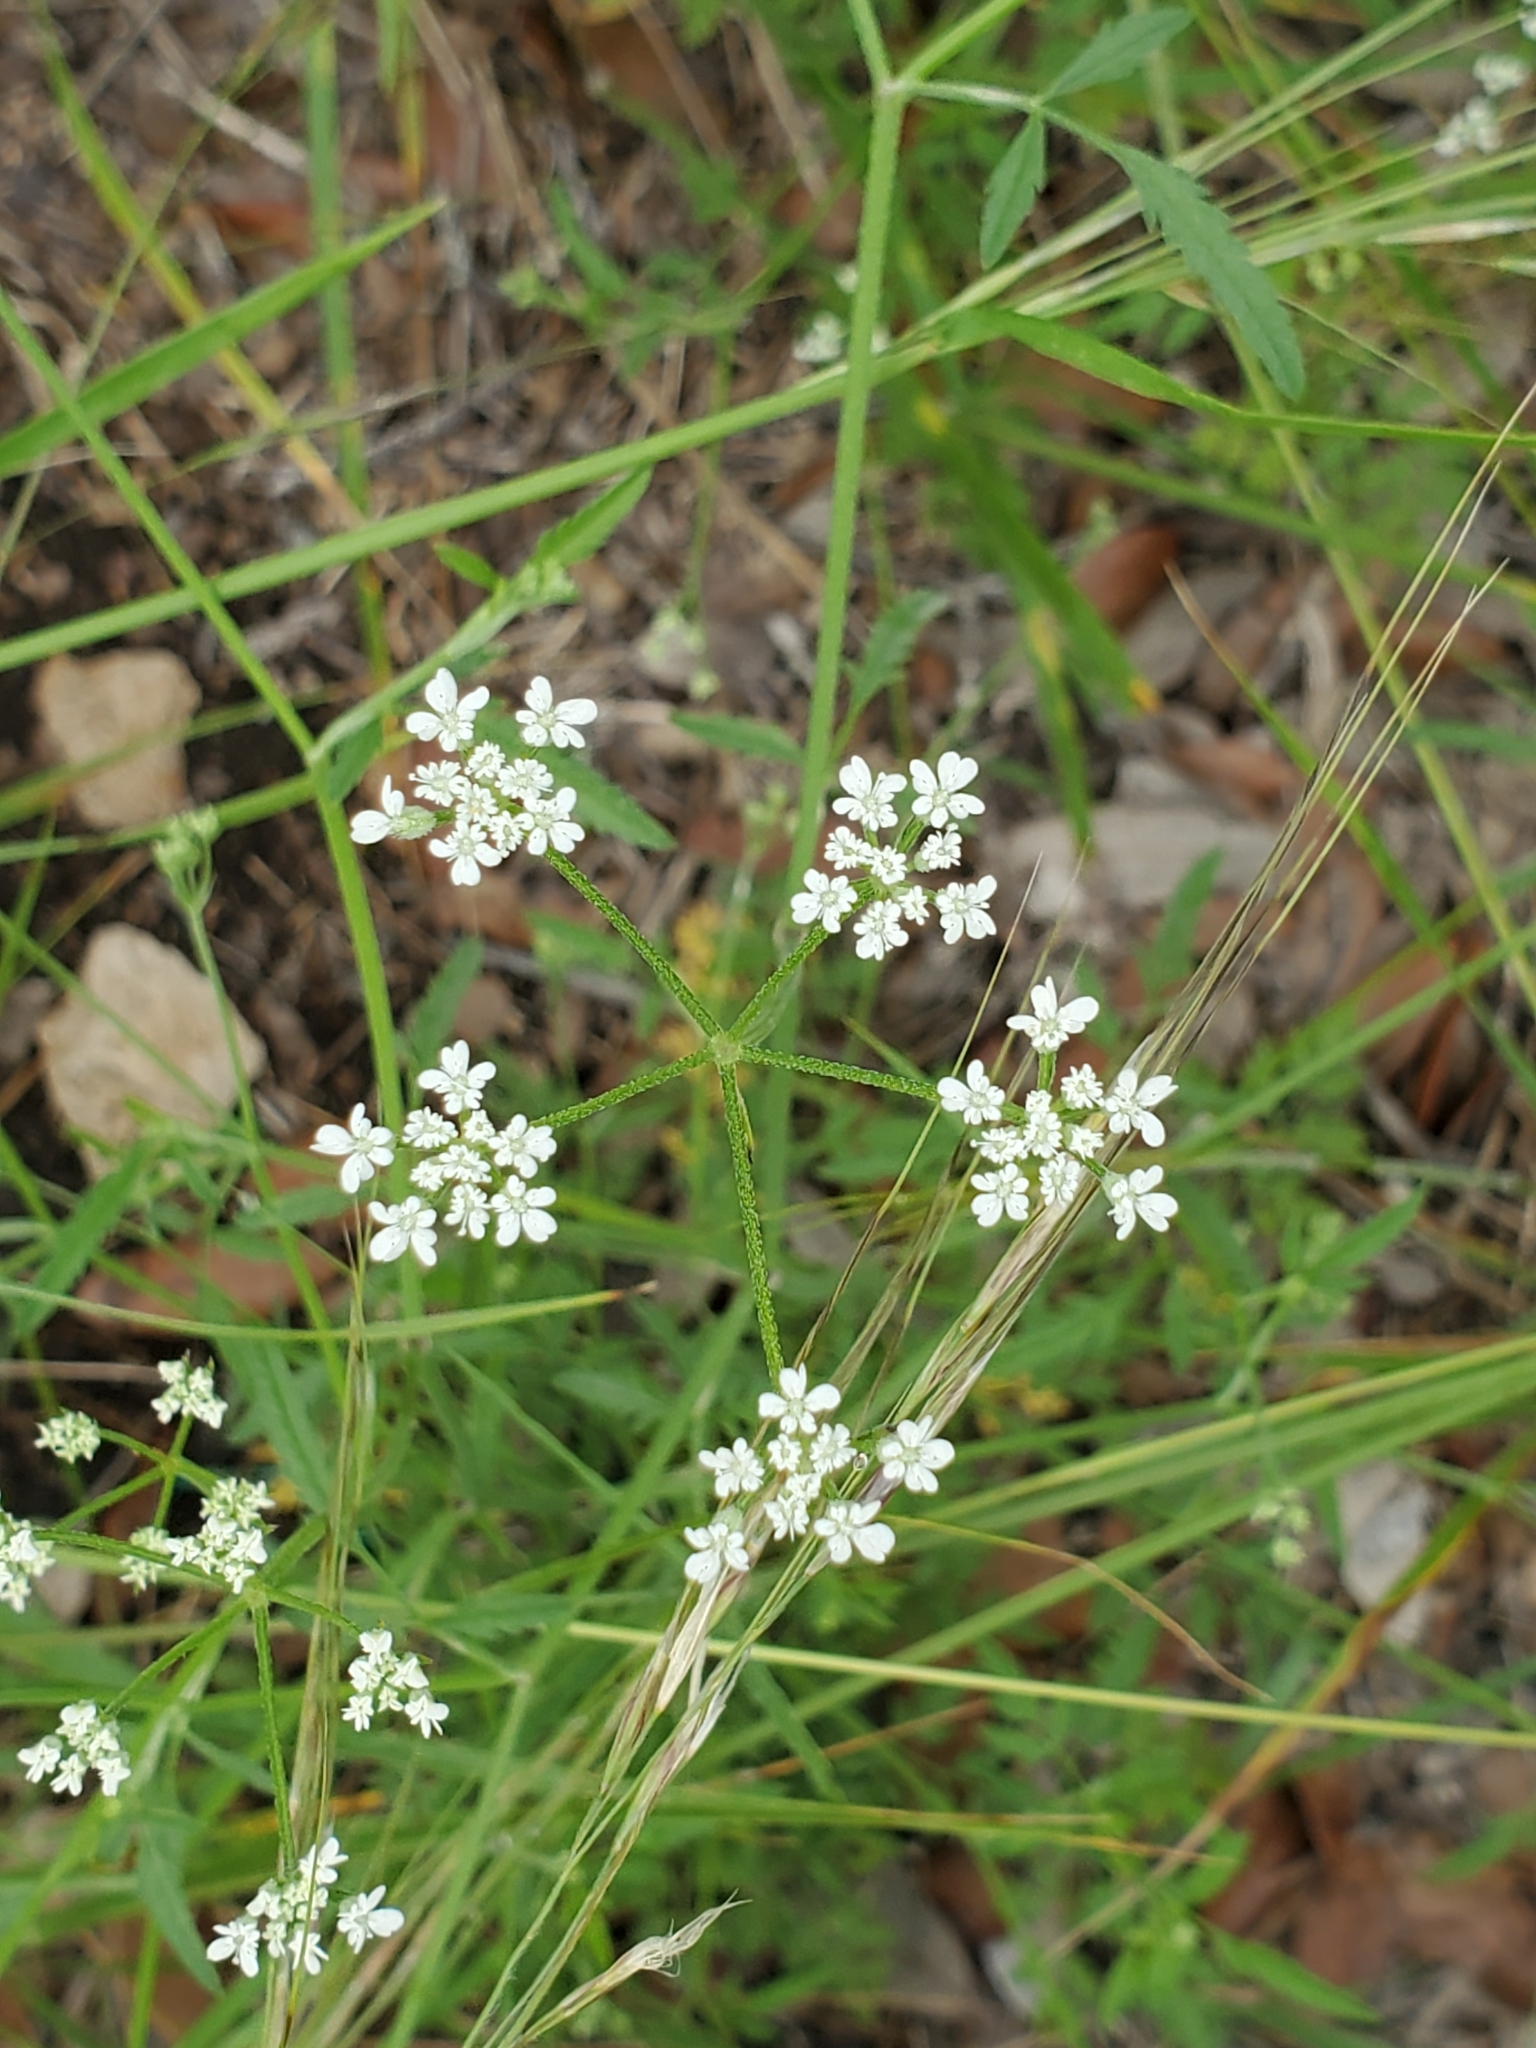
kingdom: Plantae
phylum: Tracheophyta
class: Magnoliopsida
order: Apiales
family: Apiaceae
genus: Torilis
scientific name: Torilis arvensis
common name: Spreading hedge-parsley
